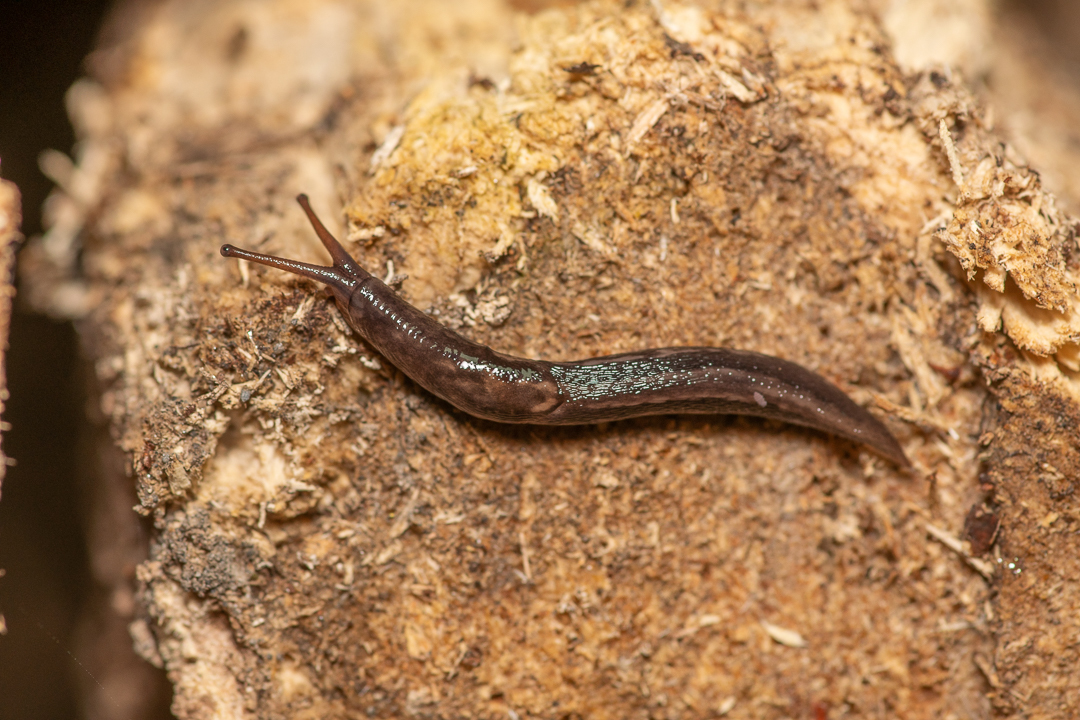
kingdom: Animalia
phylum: Mollusca
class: Gastropoda
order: Stylommatophora
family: Limacidae
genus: Limax
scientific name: Limax maximus
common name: Great grey slug
